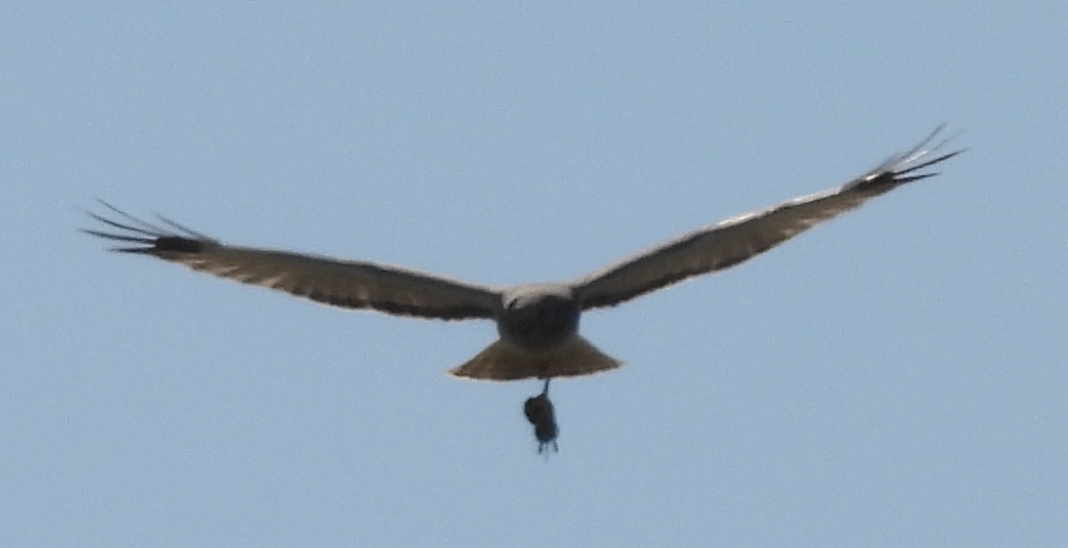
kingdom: Animalia
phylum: Chordata
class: Aves
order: Accipitriformes
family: Accipitridae
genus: Circus
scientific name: Circus cyaneus
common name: Hen harrier
